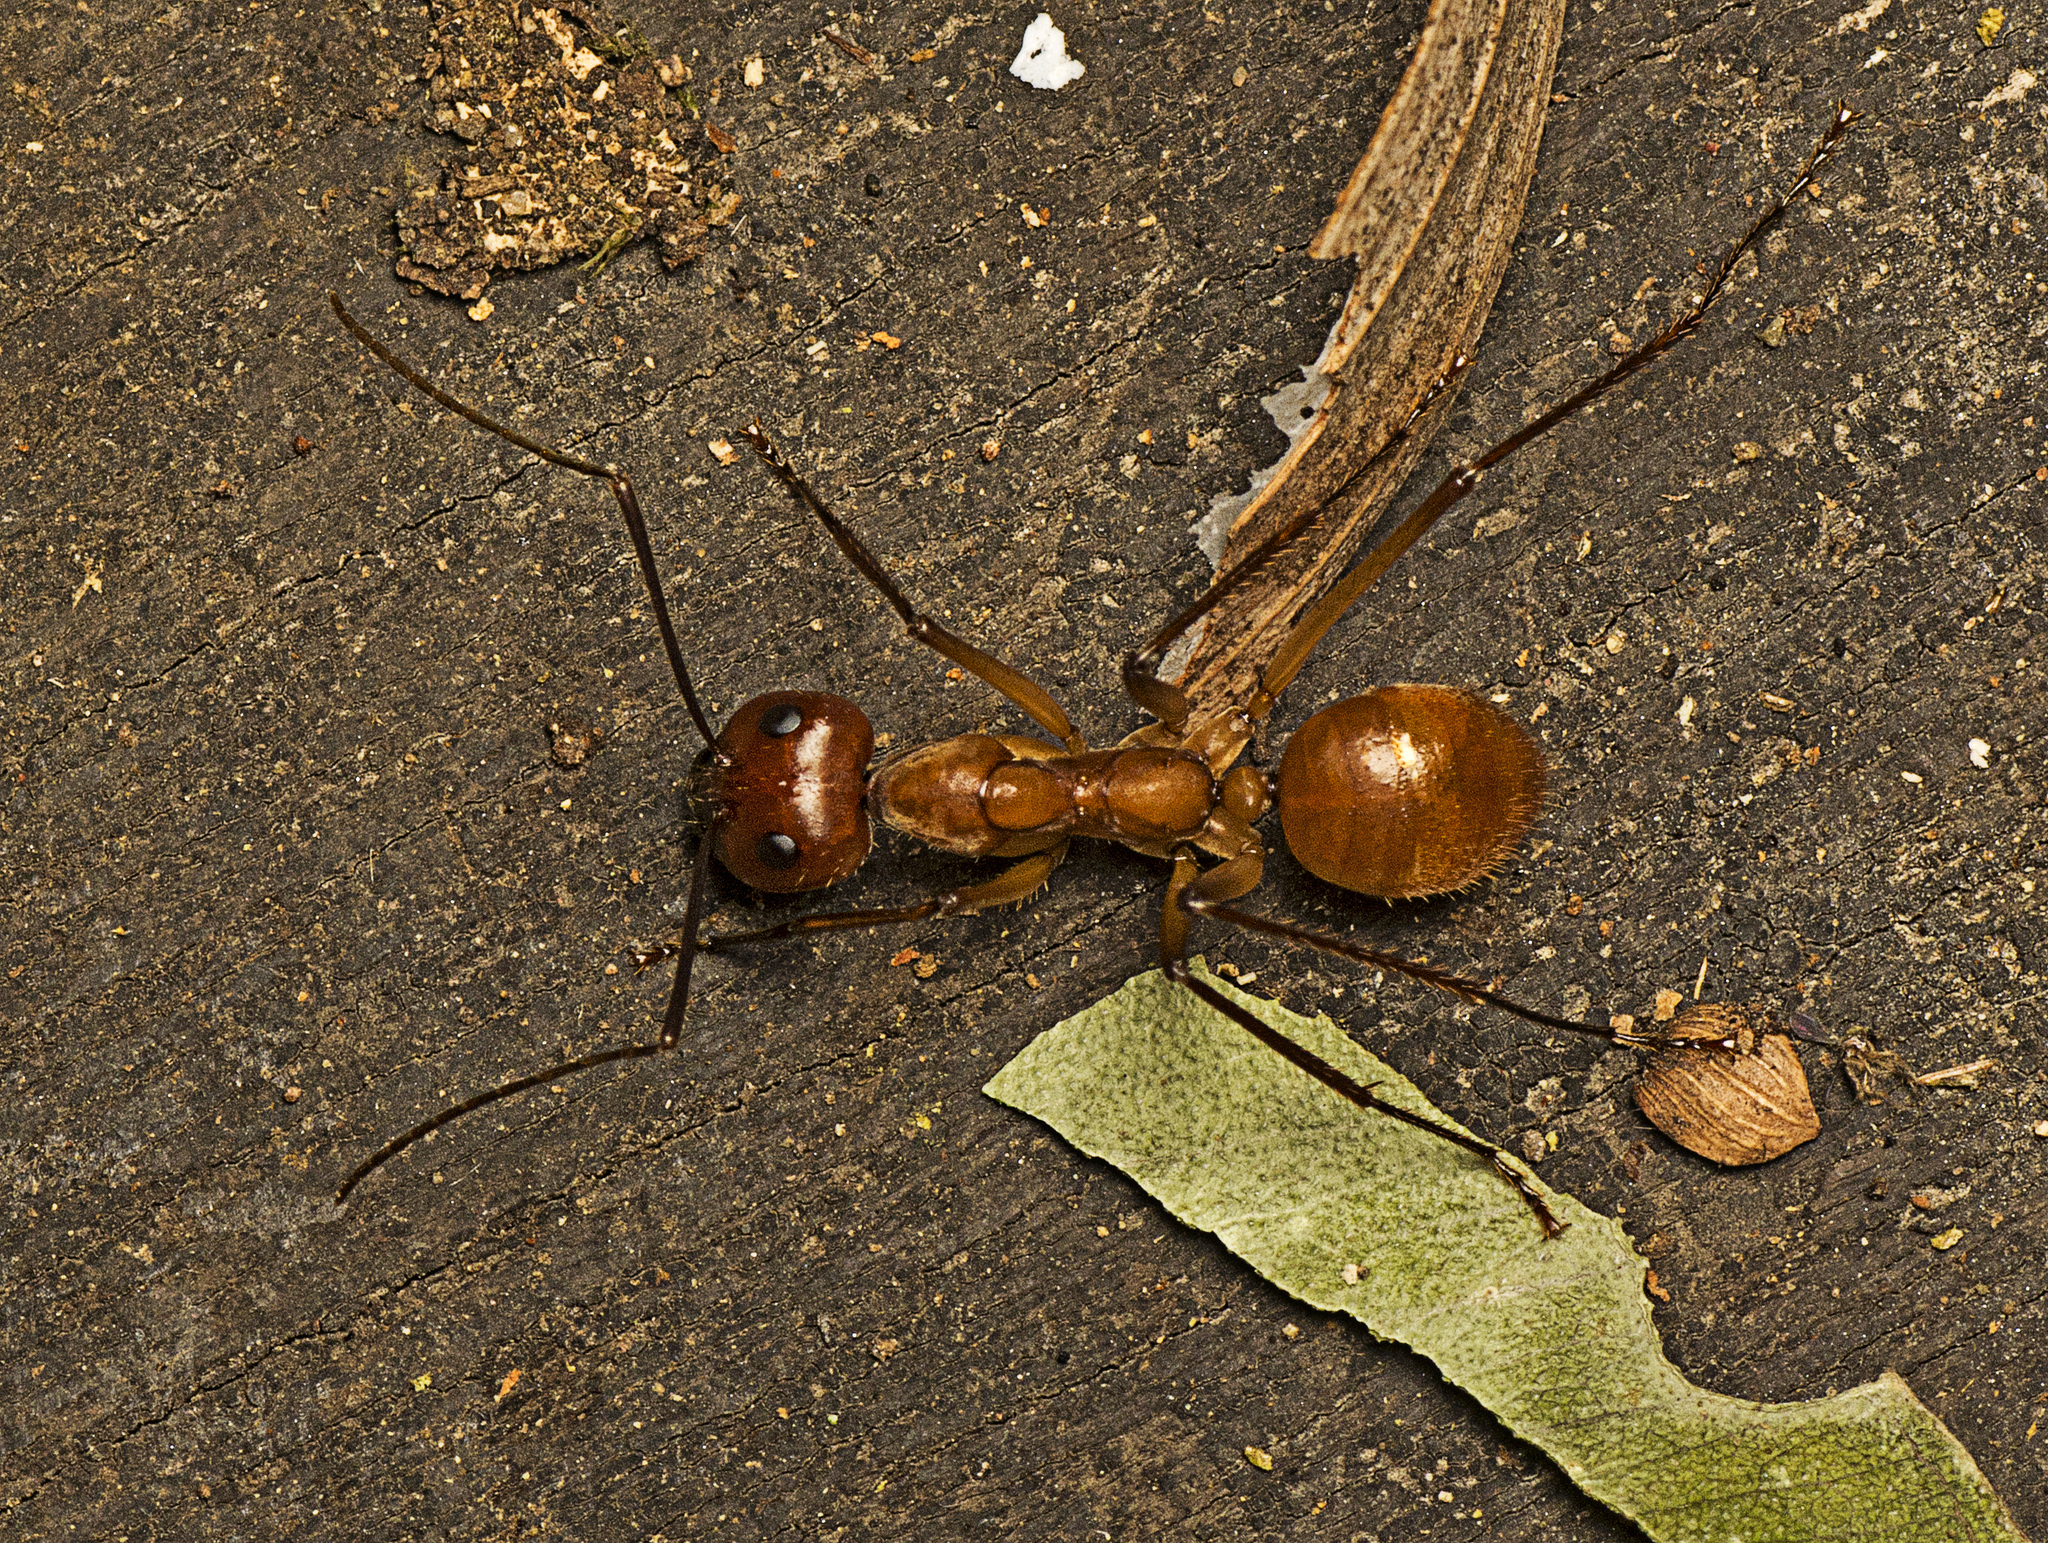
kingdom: Animalia
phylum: Arthropoda
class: Insecta
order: Hymenoptera
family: Formicidae
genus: Notostigma
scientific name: Notostigma foreli
